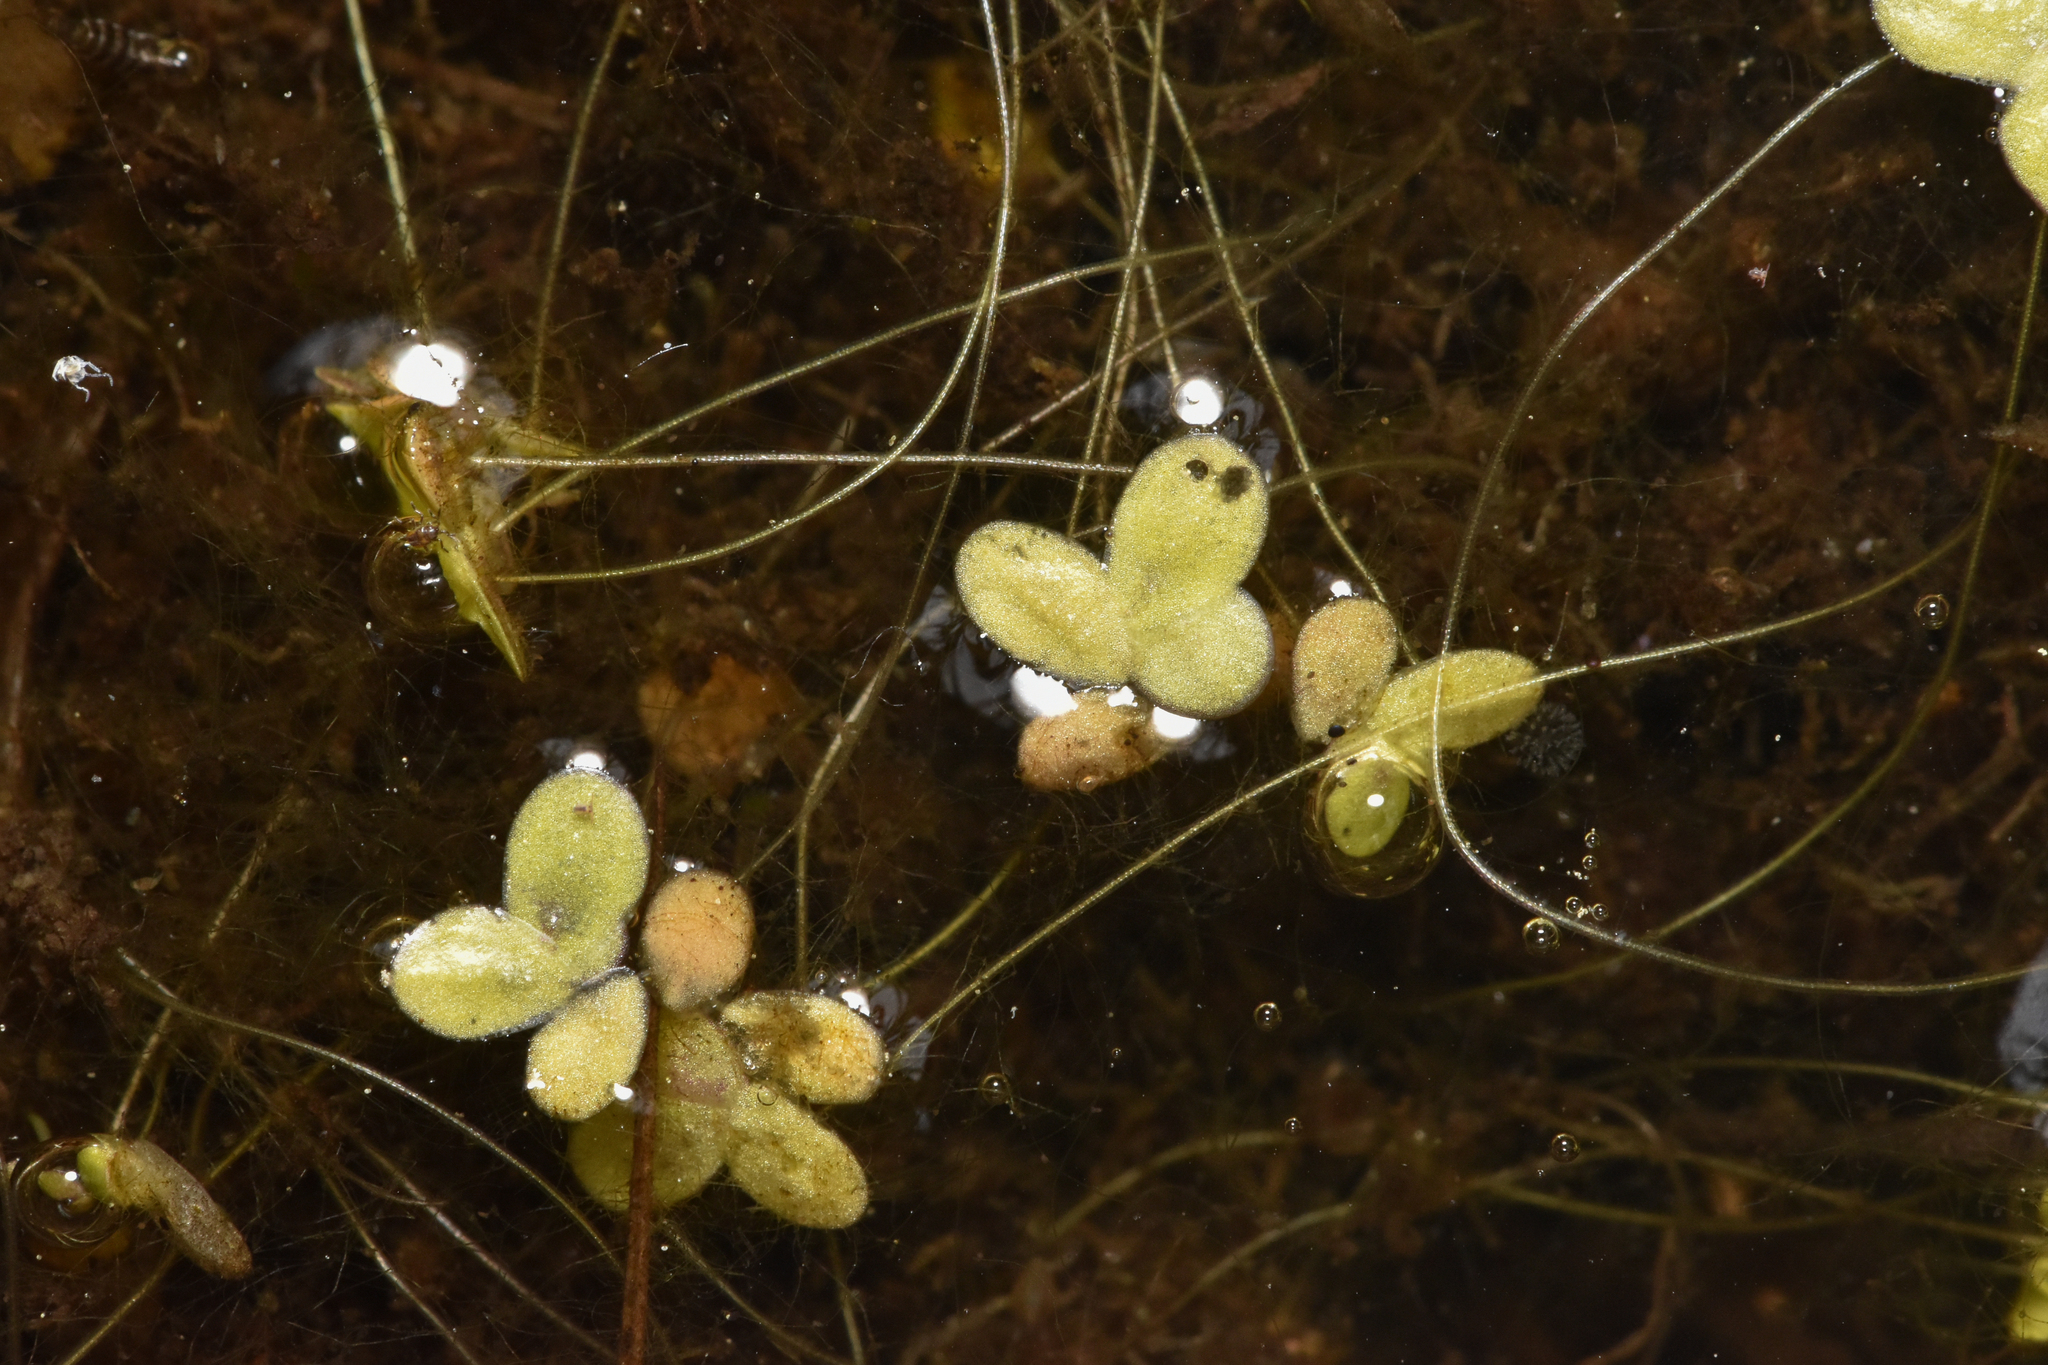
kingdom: Plantae
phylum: Tracheophyta
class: Liliopsida
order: Alismatales
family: Araceae
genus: Lemna
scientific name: Lemna minor
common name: Common duckweed
